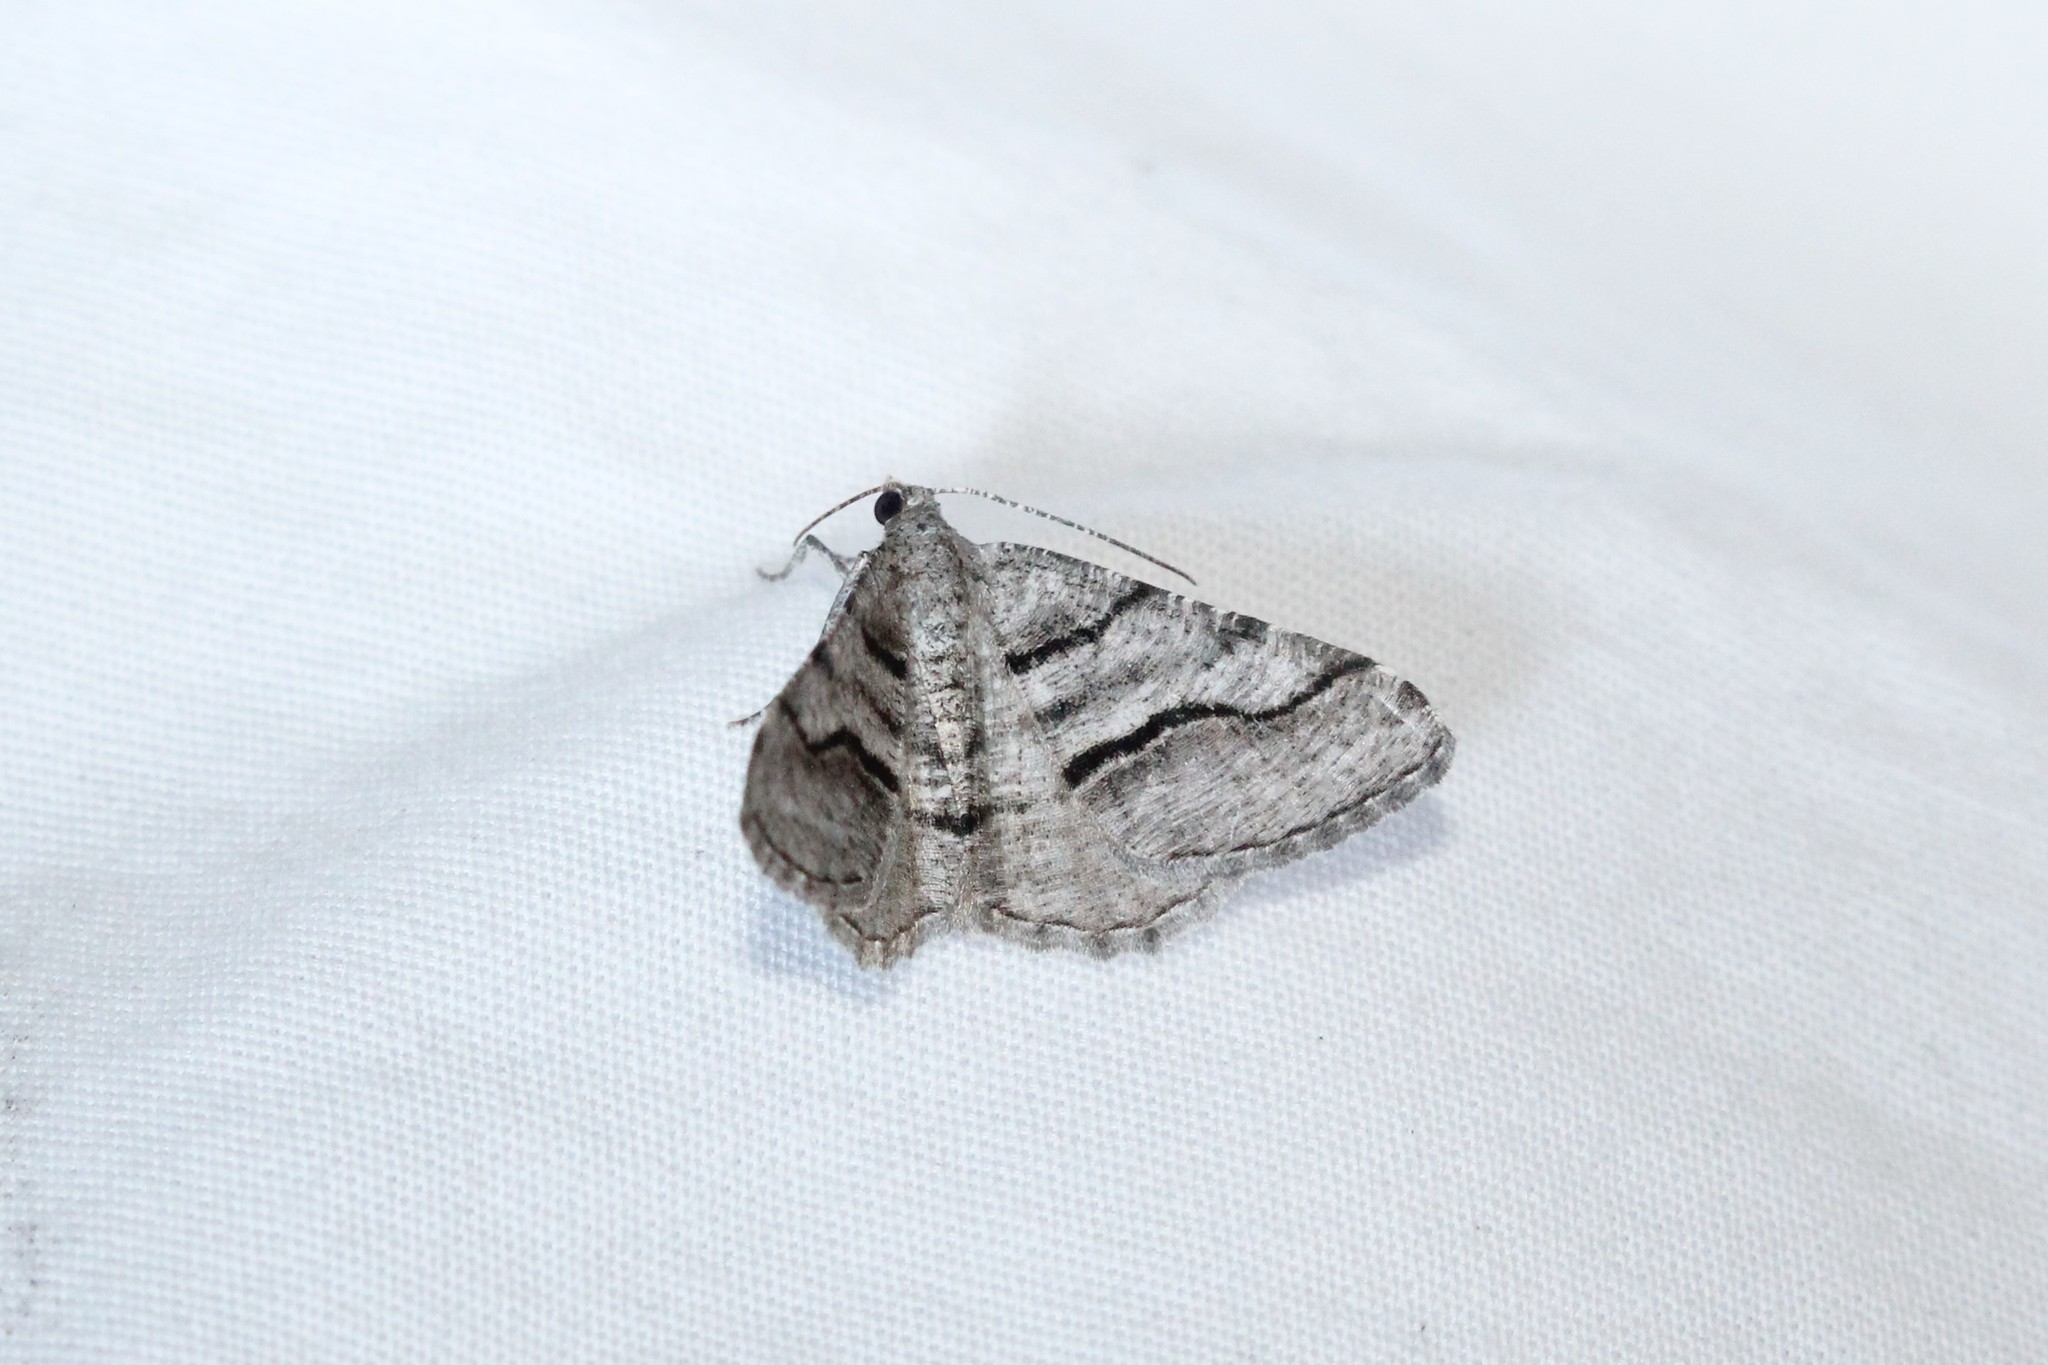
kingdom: Animalia
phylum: Arthropoda
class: Insecta
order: Lepidoptera
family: Geometridae
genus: Digrammia
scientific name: Digrammia continuata
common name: Curve-lined angle
